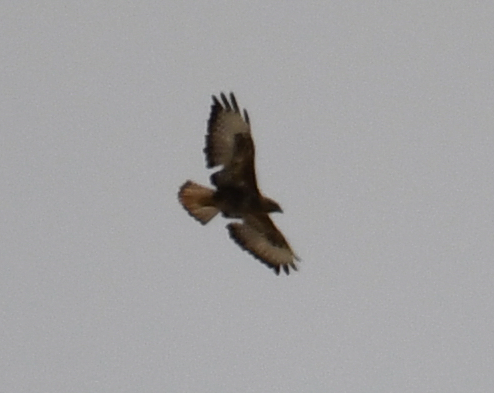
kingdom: Animalia
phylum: Chordata
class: Aves
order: Accipitriformes
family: Accipitridae
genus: Buteo
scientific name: Buteo buteo
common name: Common buzzard
